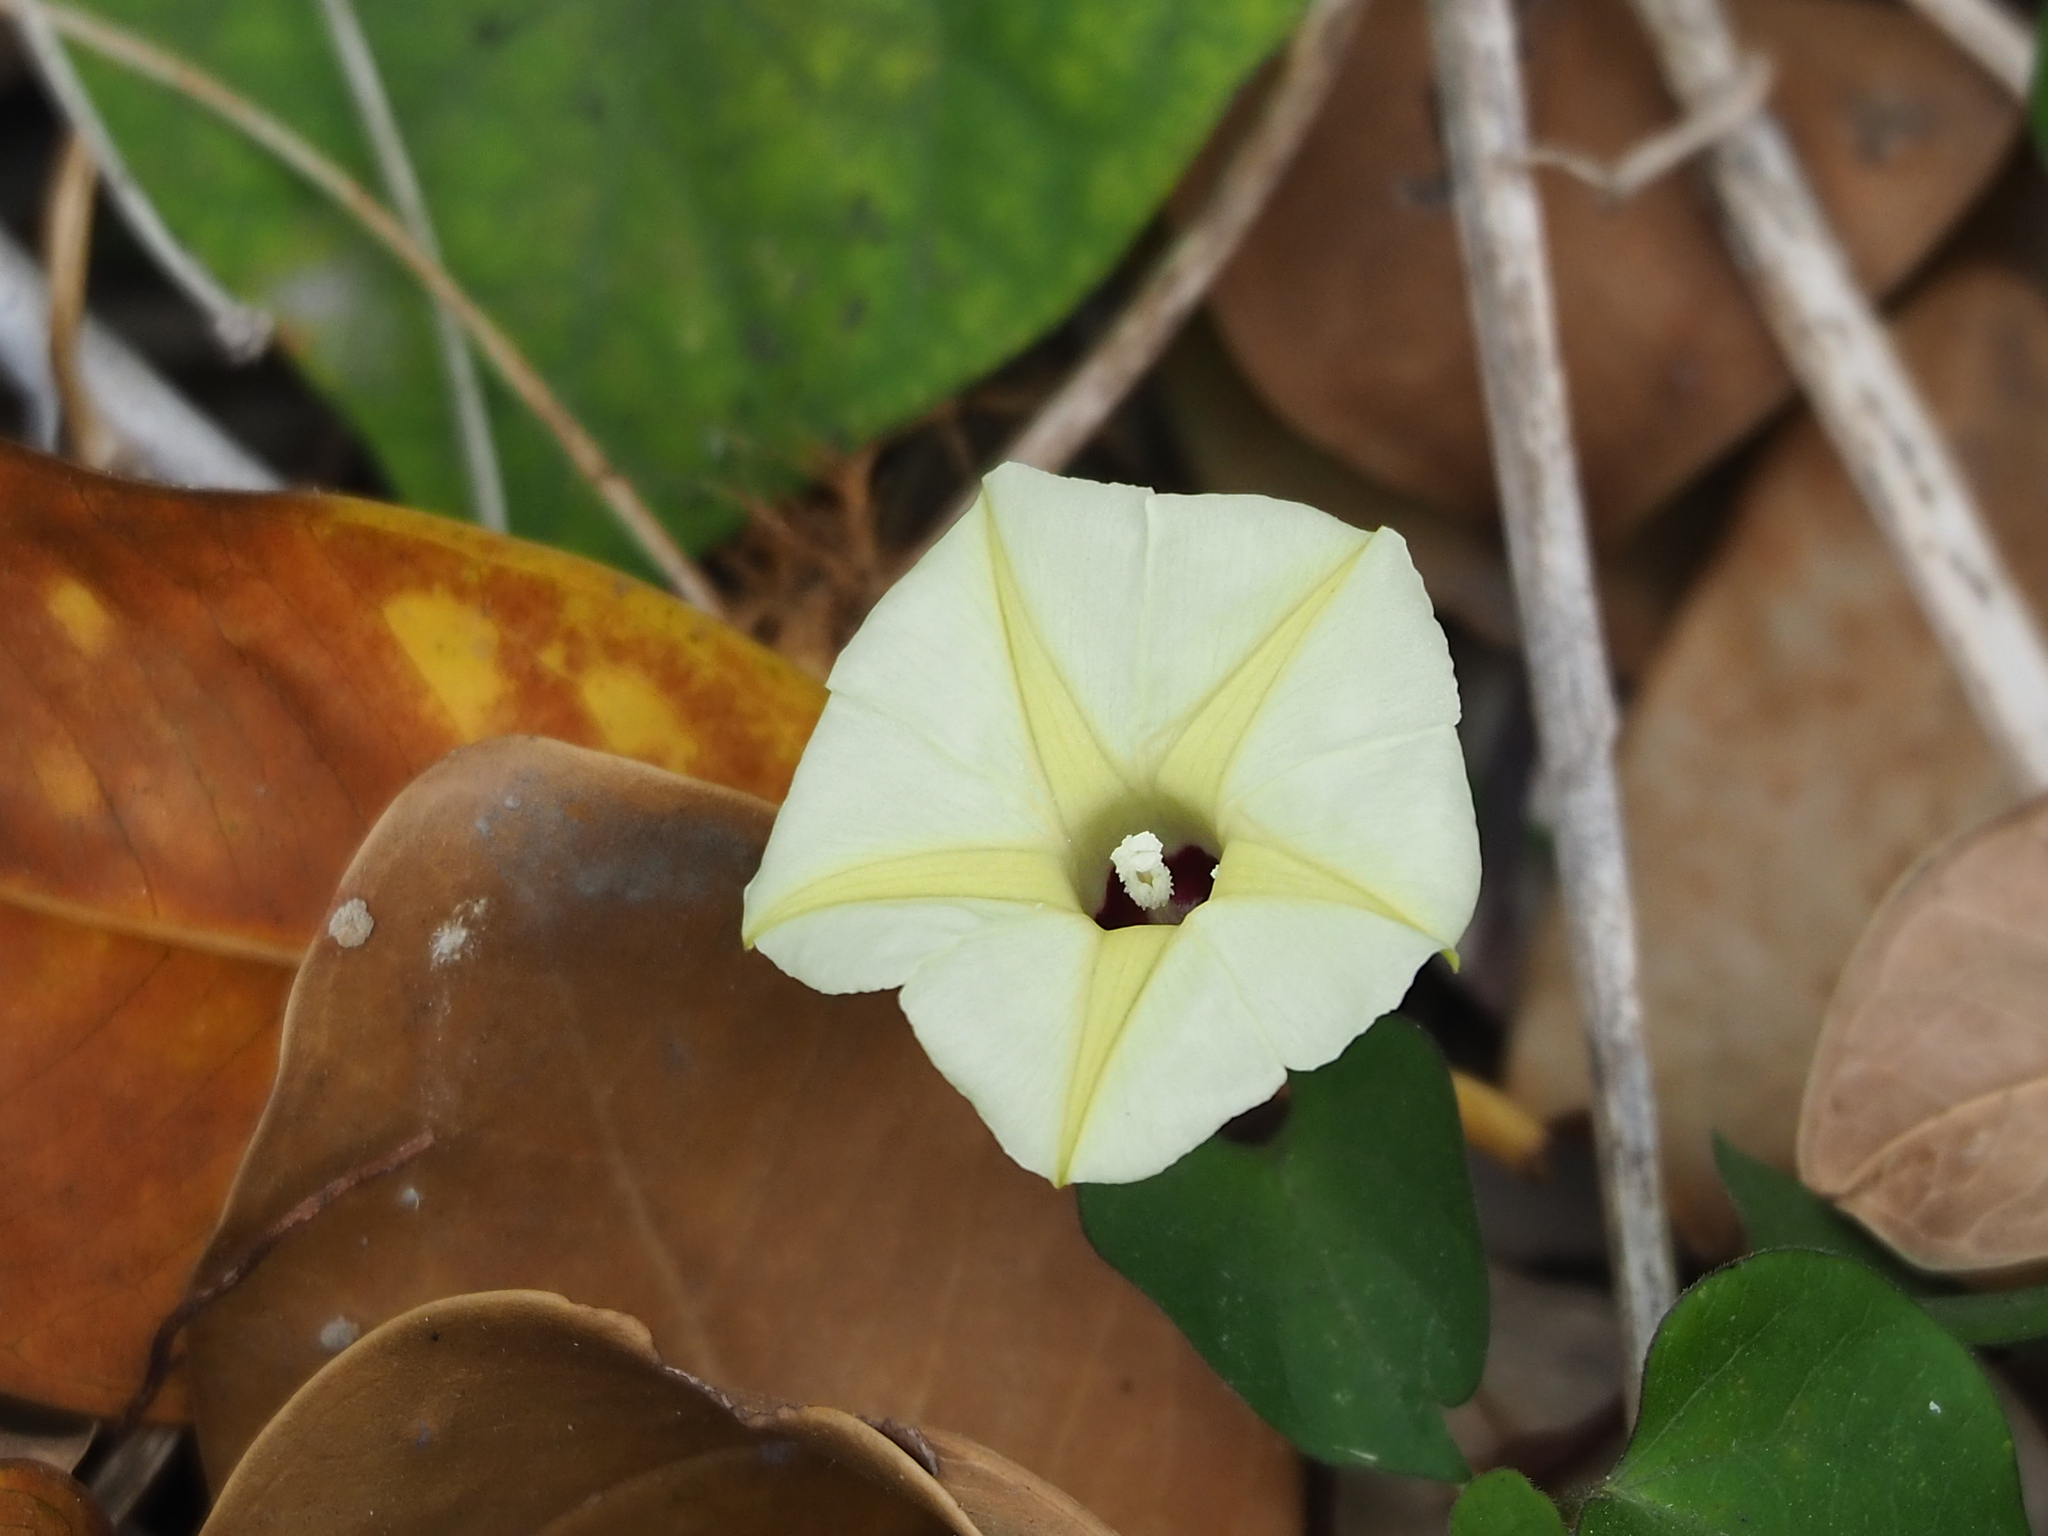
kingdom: Plantae
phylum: Tracheophyta
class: Magnoliopsida
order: Solanales
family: Convolvulaceae
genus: Ipomoea
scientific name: Ipomoea obscura
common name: Obscure morning-glory
